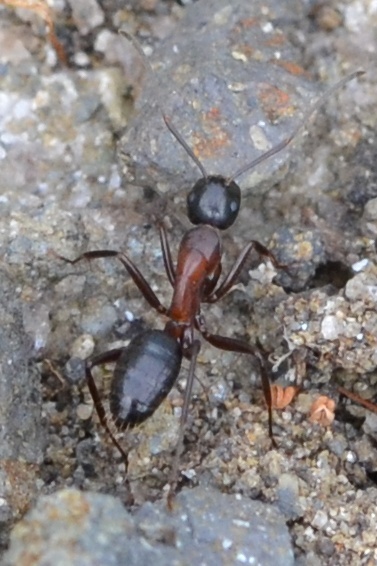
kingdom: Animalia
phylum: Arthropoda
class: Insecta
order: Hymenoptera
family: Formicidae
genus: Camponotus
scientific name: Camponotus herculeanus
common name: Hercules ant
